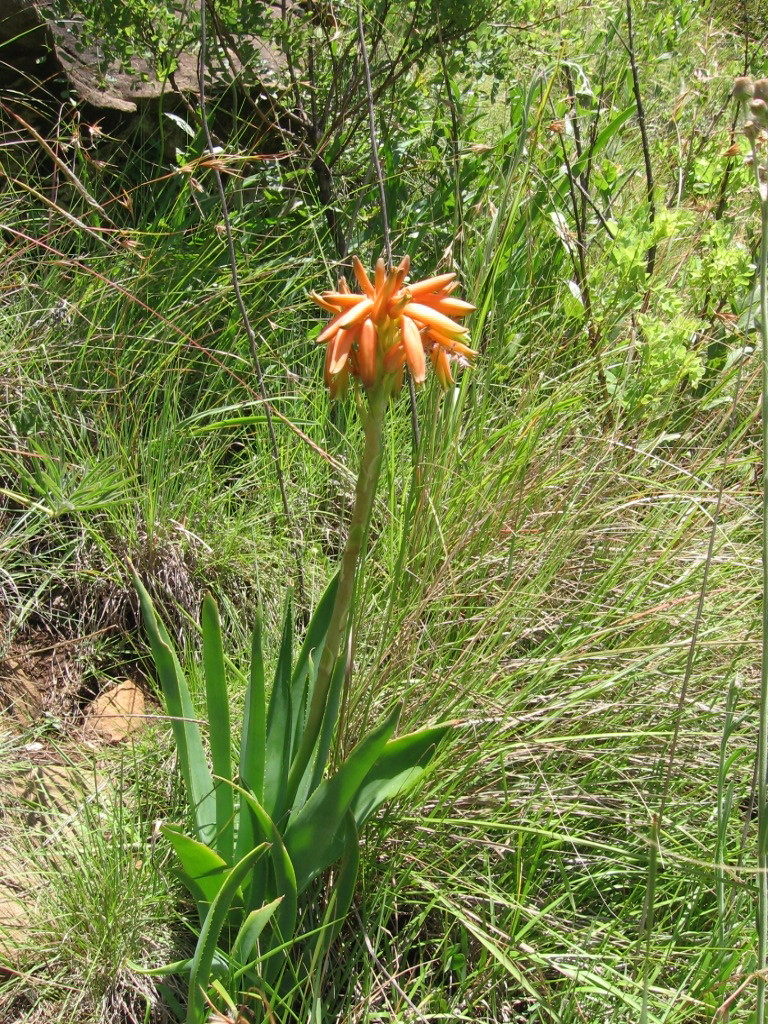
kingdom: Plantae
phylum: Tracheophyta
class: Liliopsida
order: Asparagales
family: Asphodelaceae
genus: Aloe
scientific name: Aloe boylei
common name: Broad-leaved grass aloe
